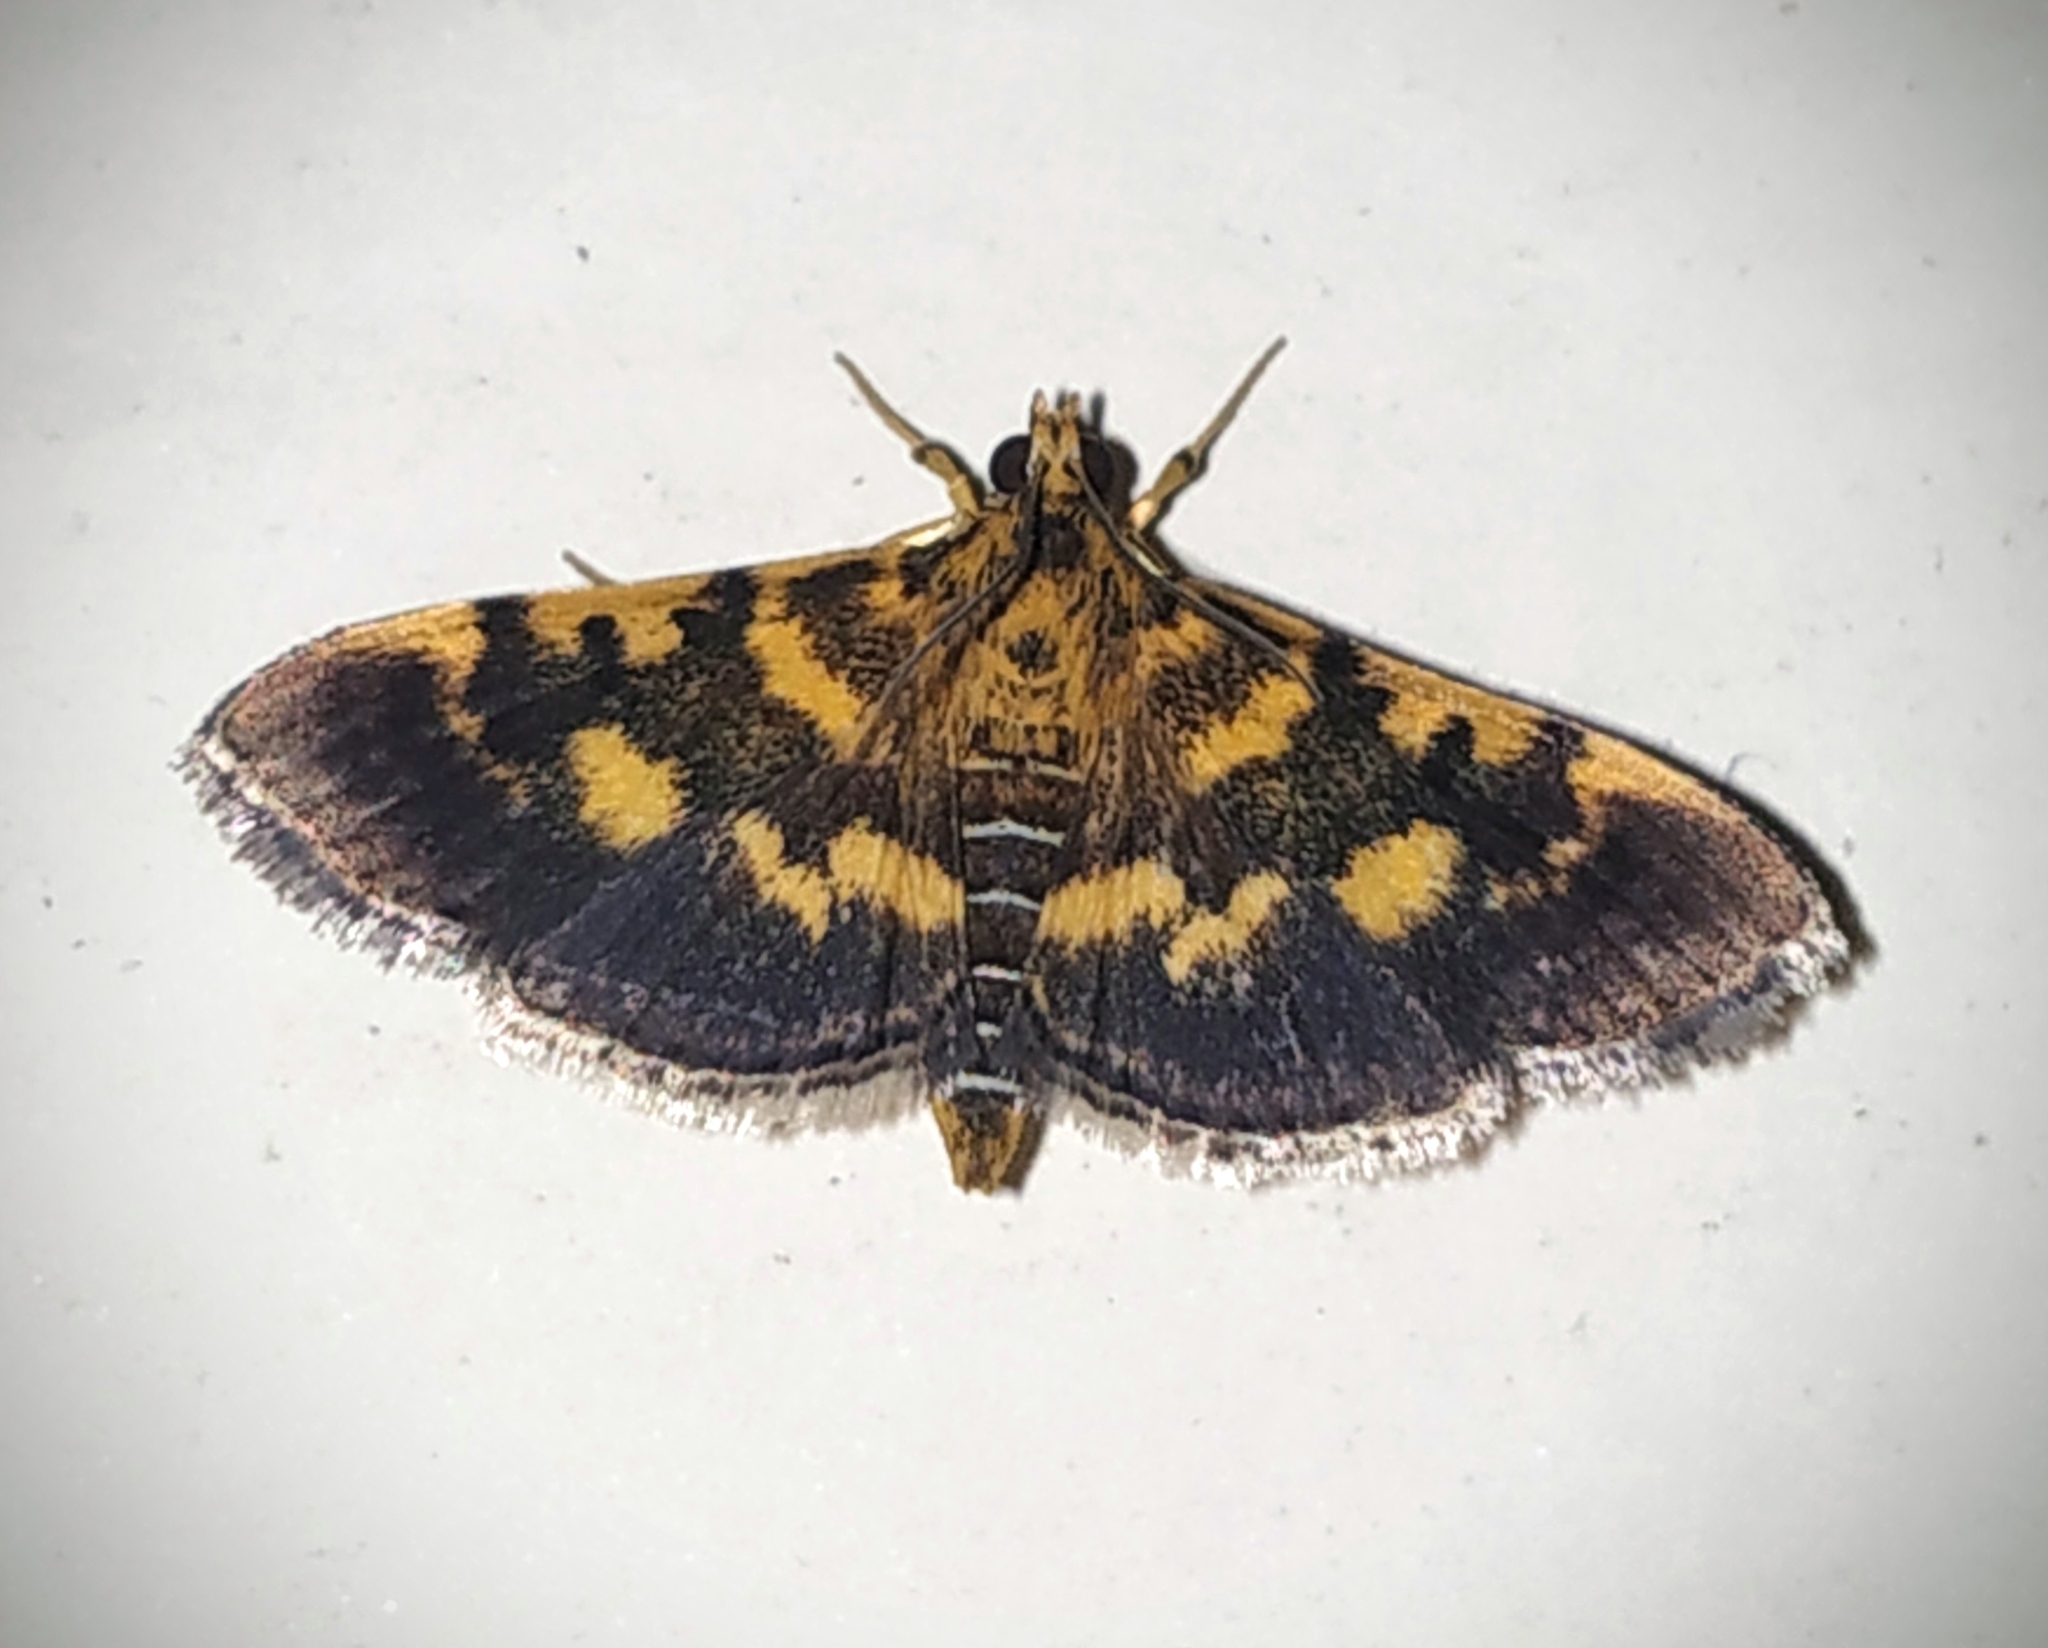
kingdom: Animalia
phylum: Arthropoda
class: Insecta
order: Lepidoptera
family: Crambidae
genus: Omiodes
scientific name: Omiodes diemenalis
